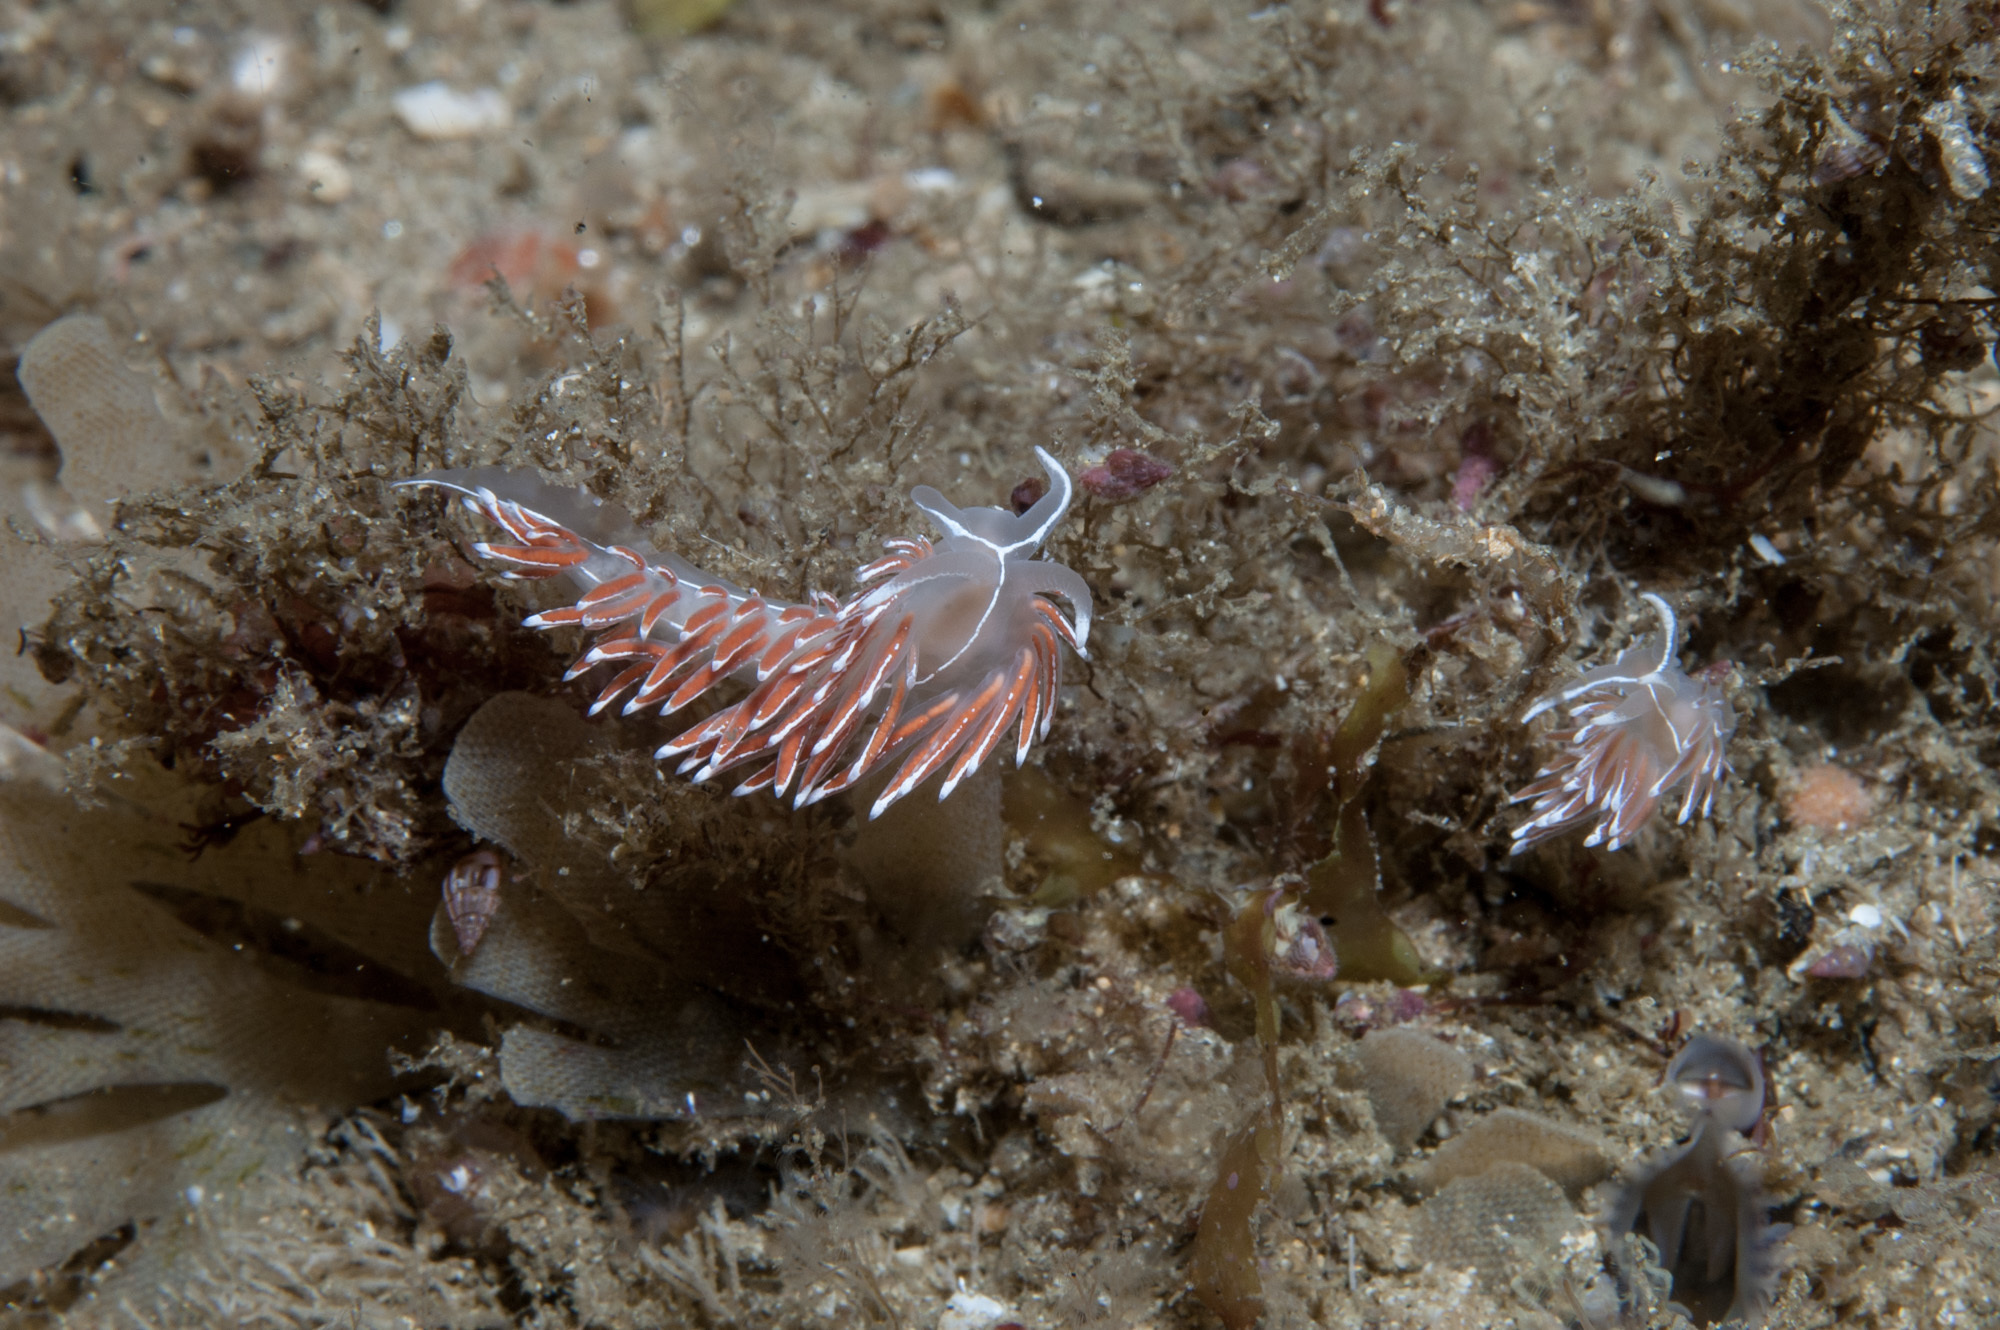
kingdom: Animalia
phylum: Mollusca
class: Gastropoda
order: Nudibranchia
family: Coryphellidae
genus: Coryphella
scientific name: Coryphella lineata
